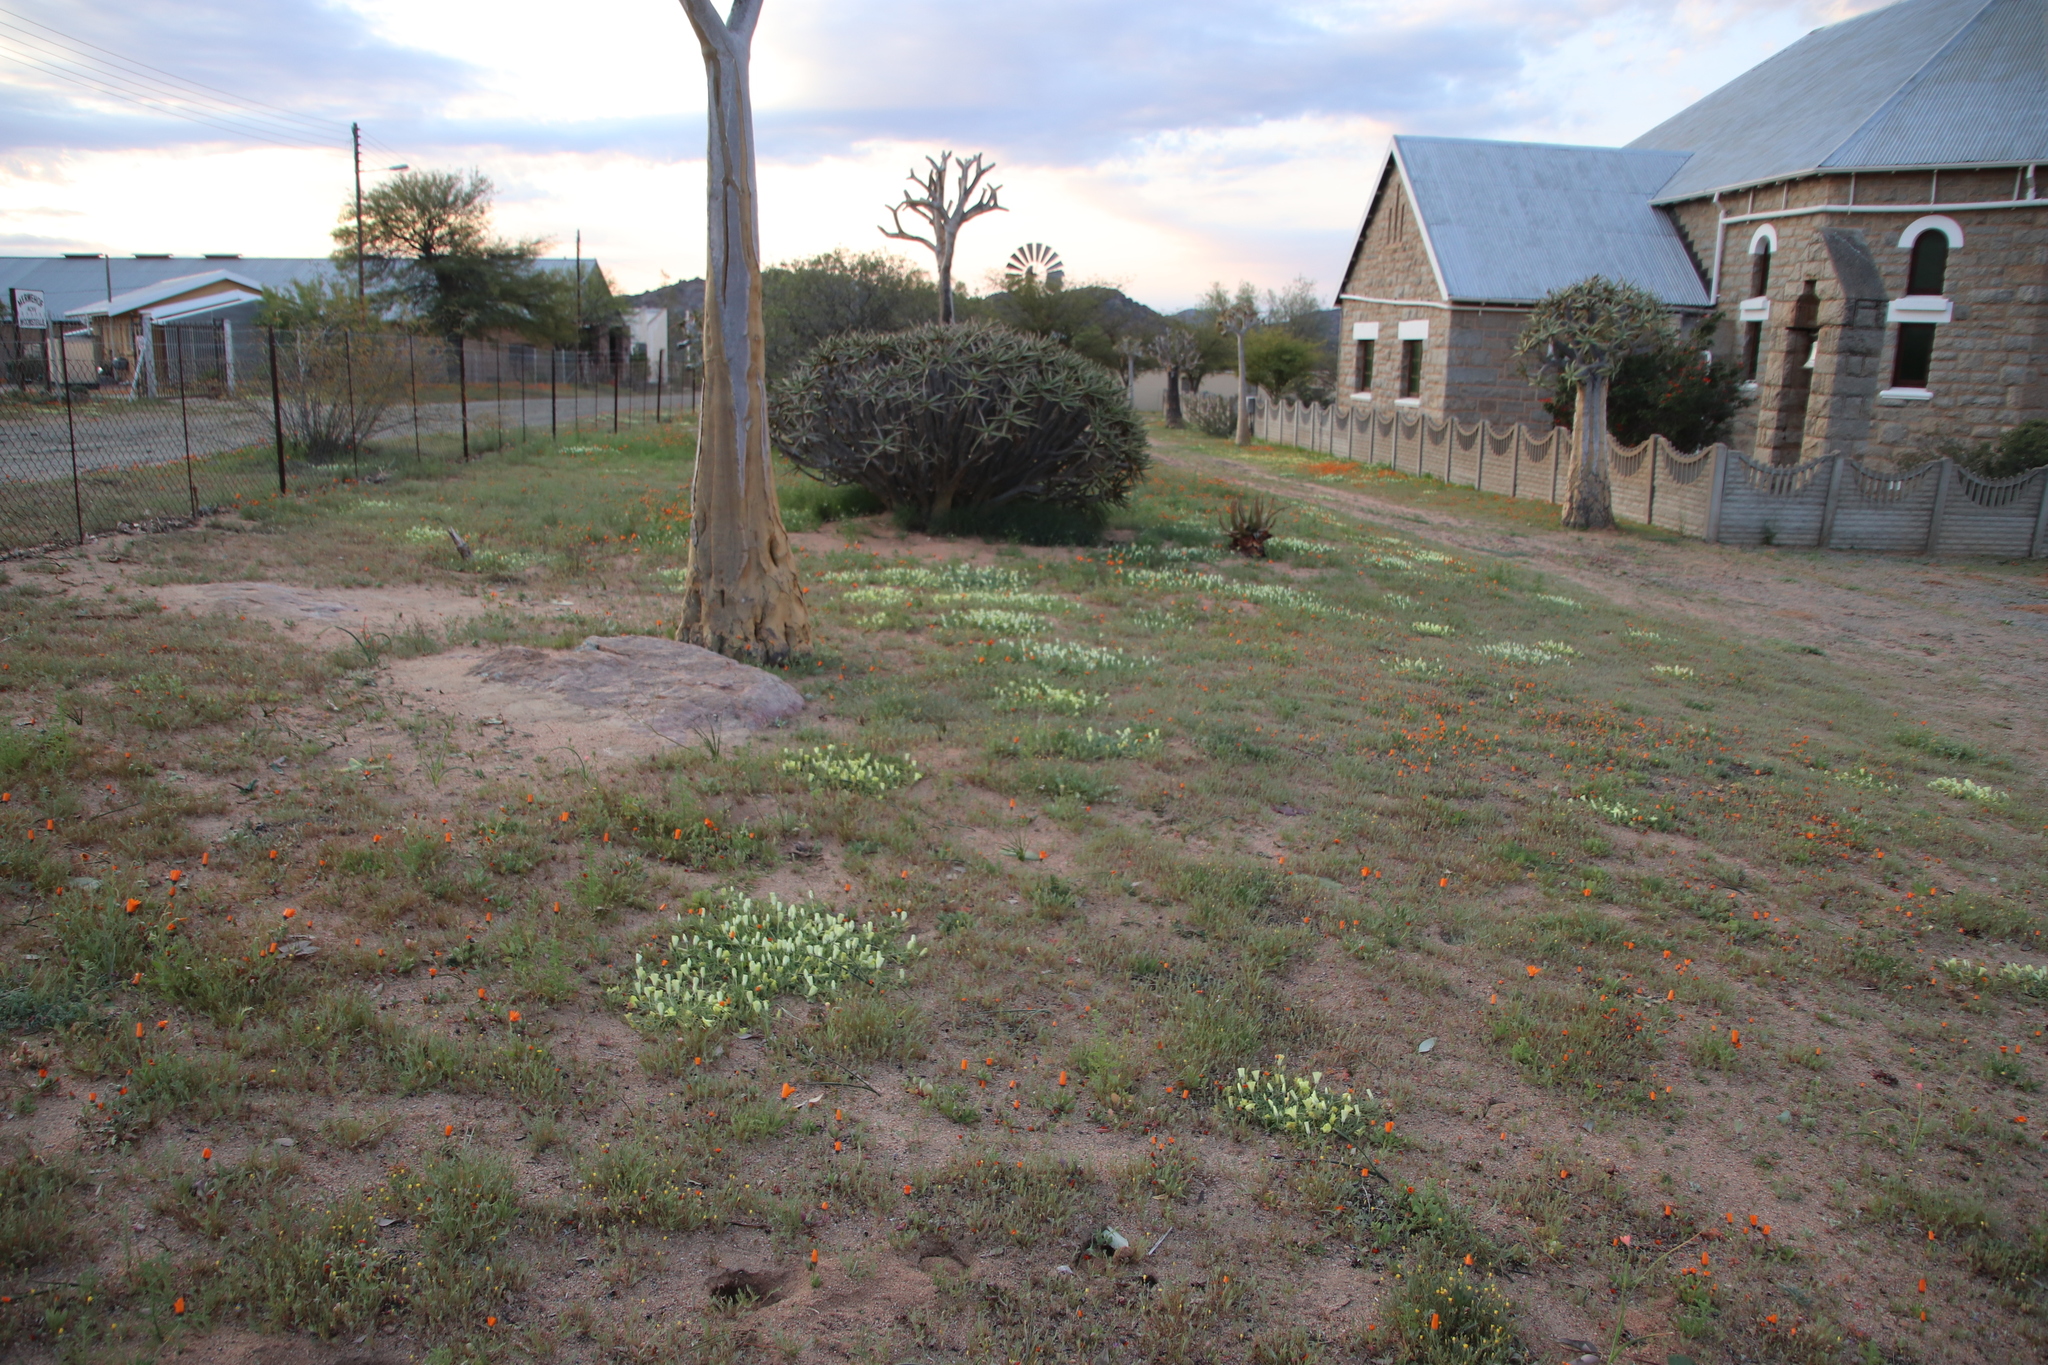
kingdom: Plantae
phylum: Tracheophyta
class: Magnoliopsida
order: Malvales
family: Neuradaceae
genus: Grielum
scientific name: Grielum humifusum
